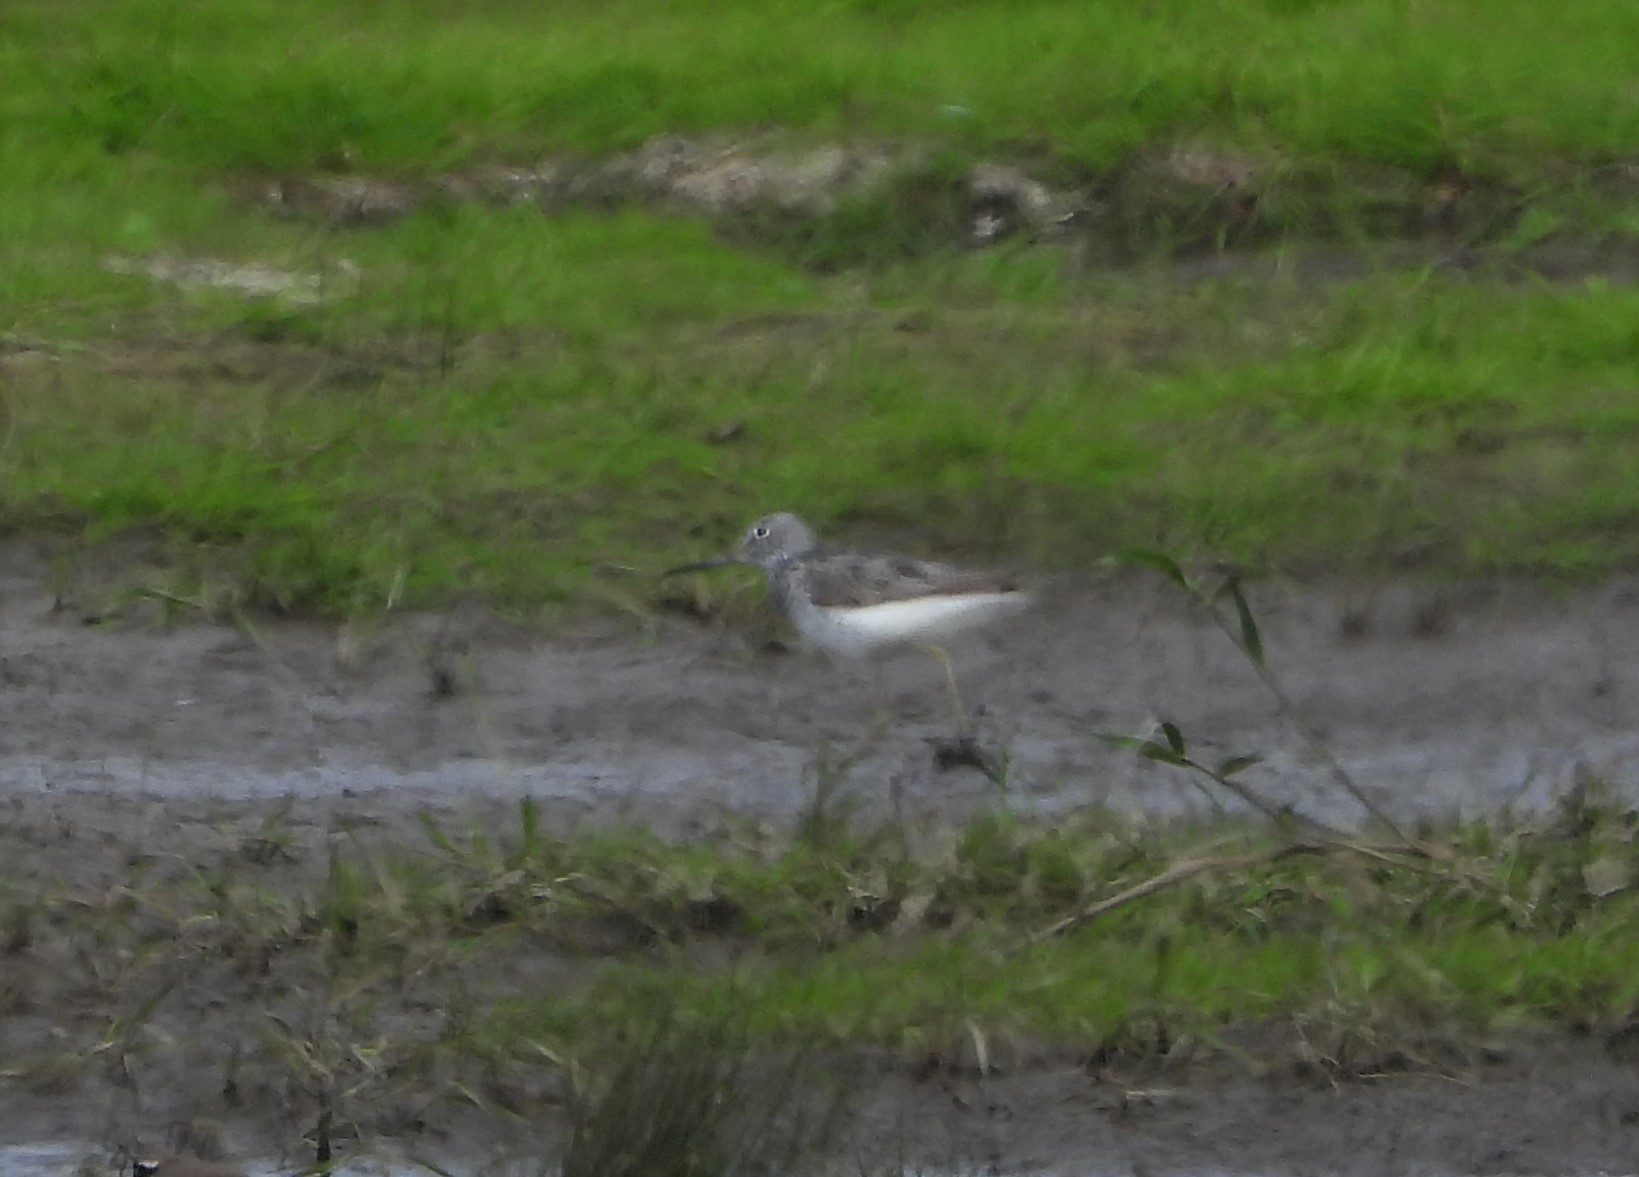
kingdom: Animalia
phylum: Chordata
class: Aves
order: Charadriiformes
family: Scolopacidae
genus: Tringa
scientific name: Tringa nebularia
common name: Common greenshank
